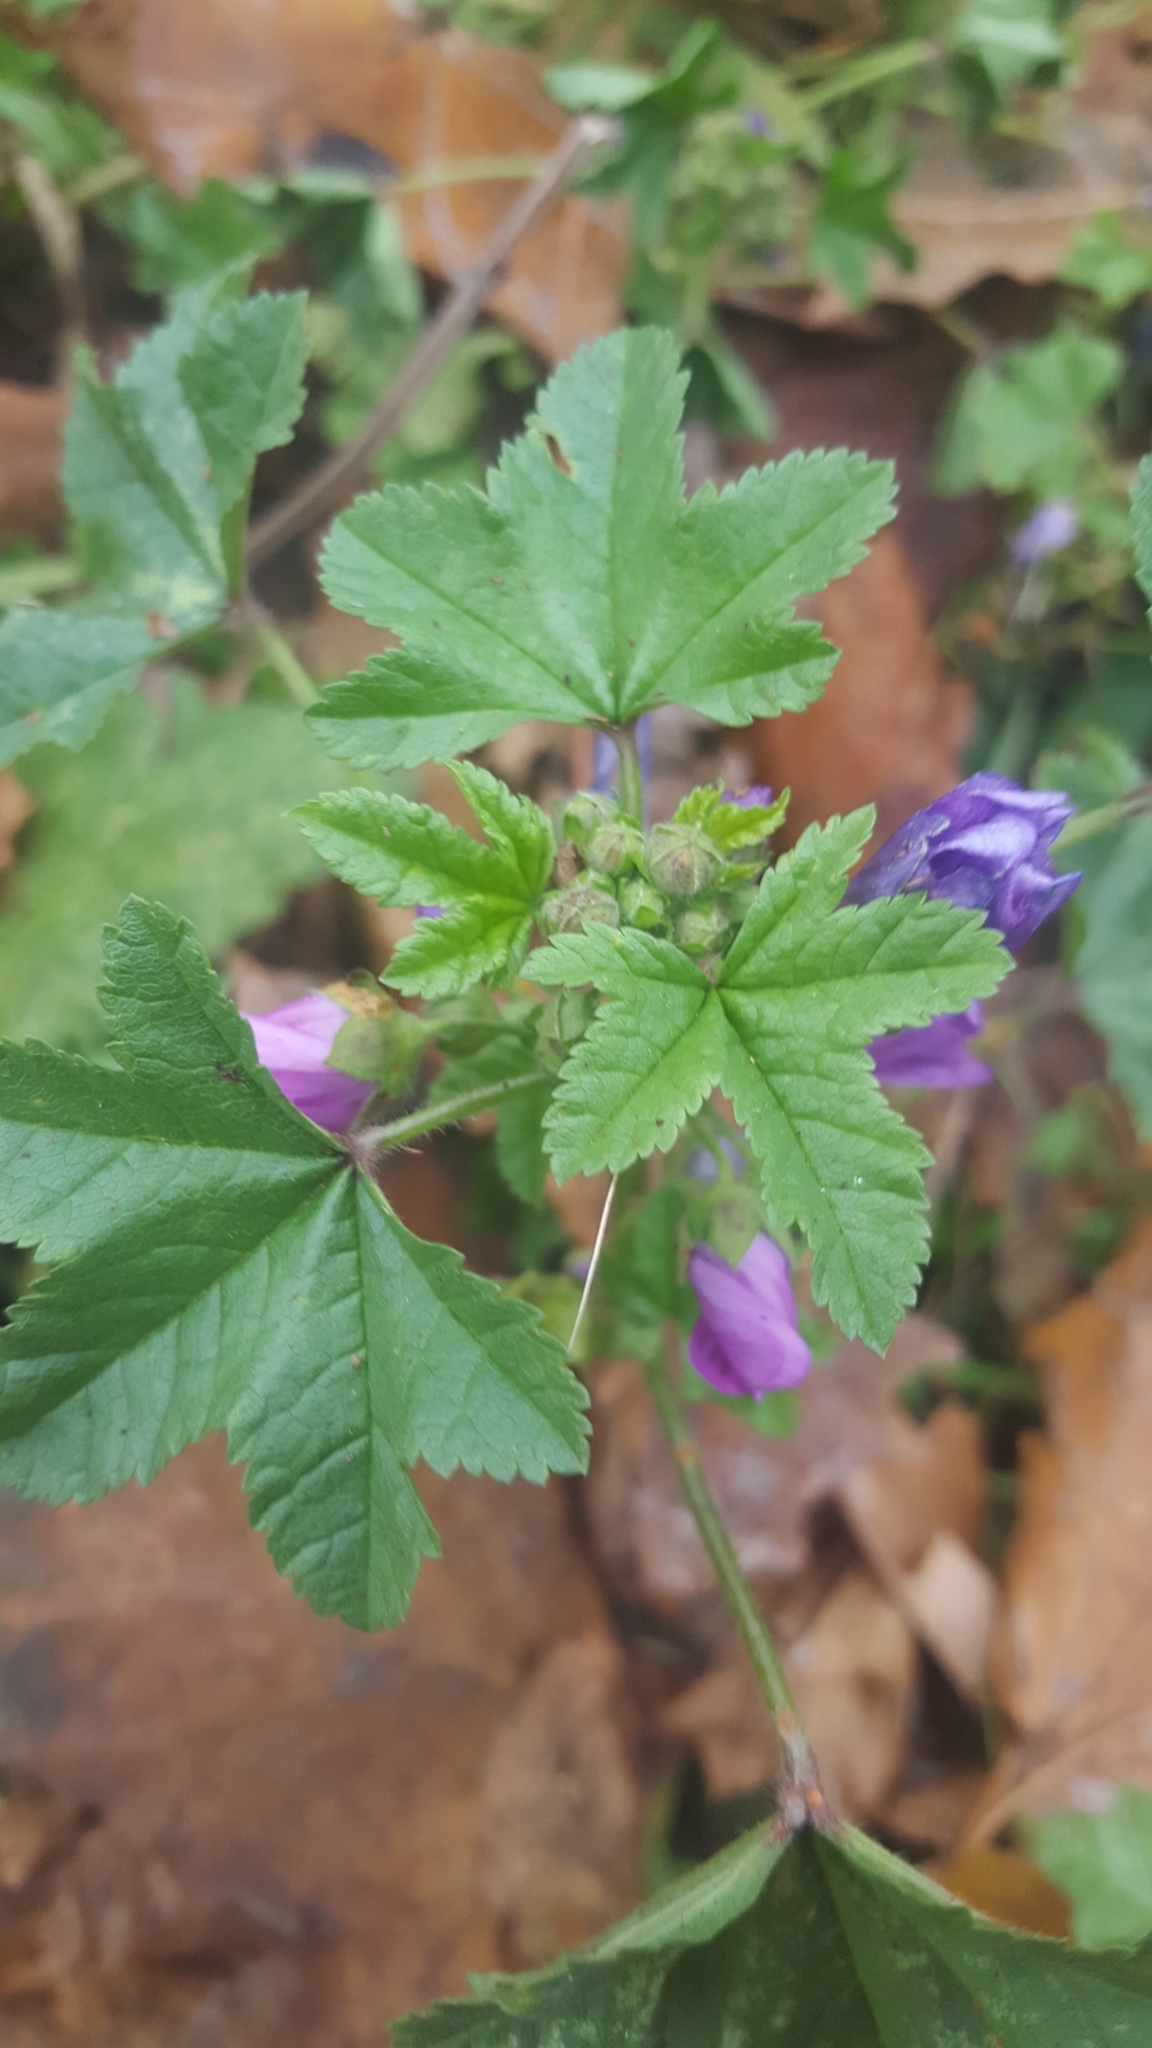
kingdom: Plantae
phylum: Tracheophyta
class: Magnoliopsida
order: Malvales
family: Malvaceae
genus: Malva
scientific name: Malva sylvestris
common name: Common mallow
